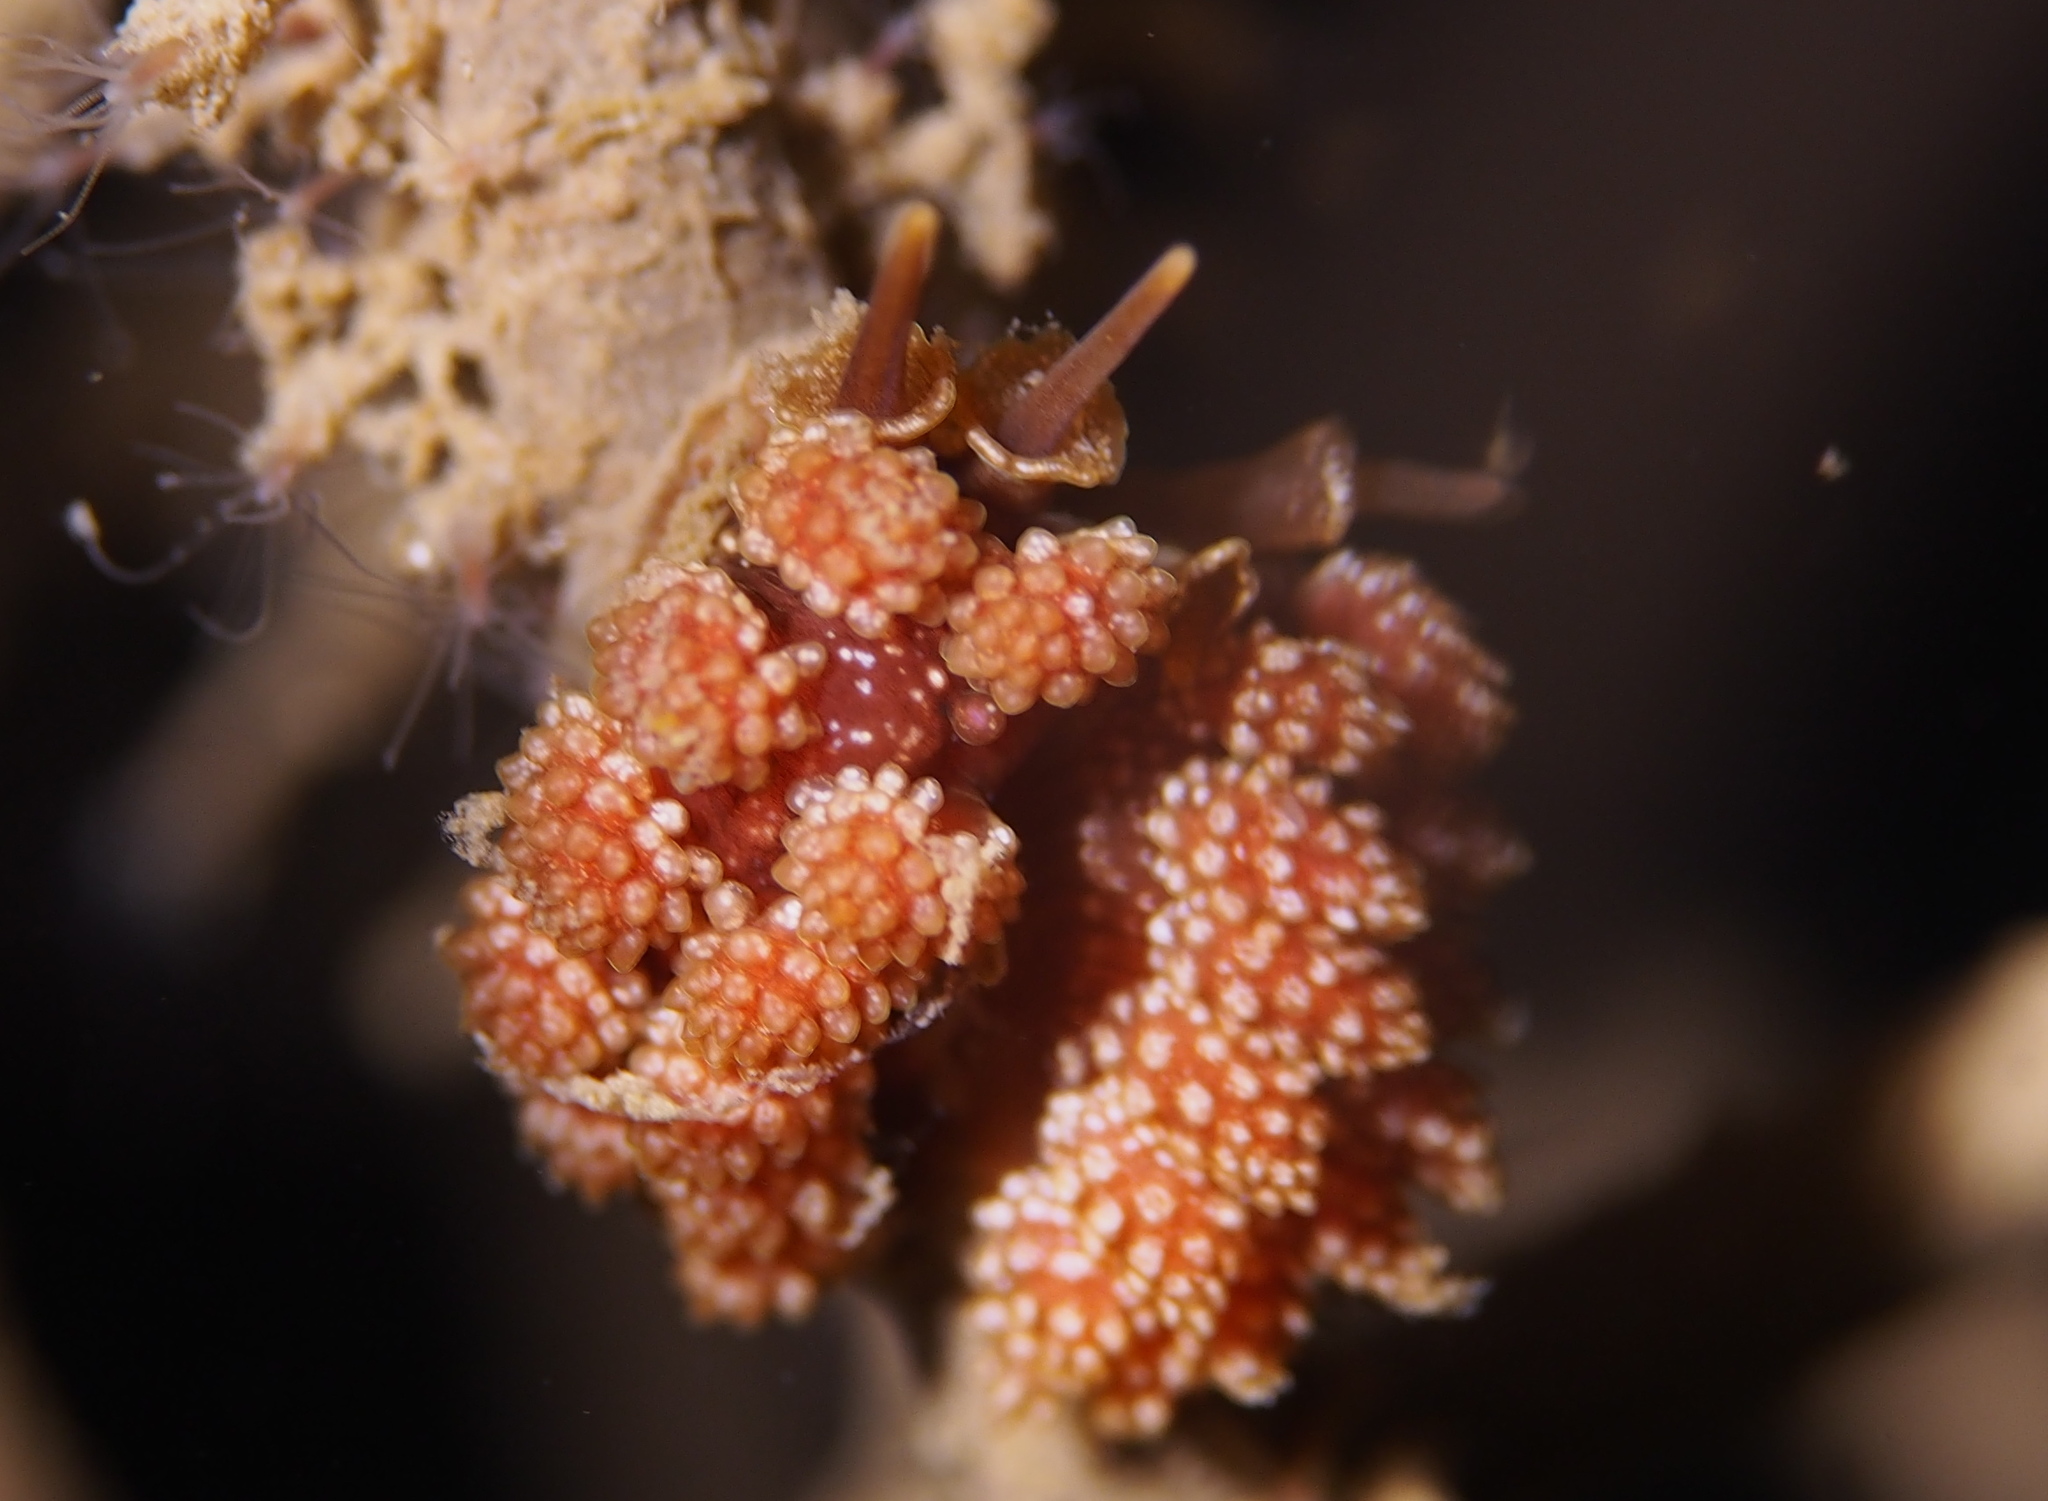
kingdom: Animalia
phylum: Mollusca
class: Gastropoda
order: Nudibranchia
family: Dotidae
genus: Doto
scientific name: Doto fragilis
